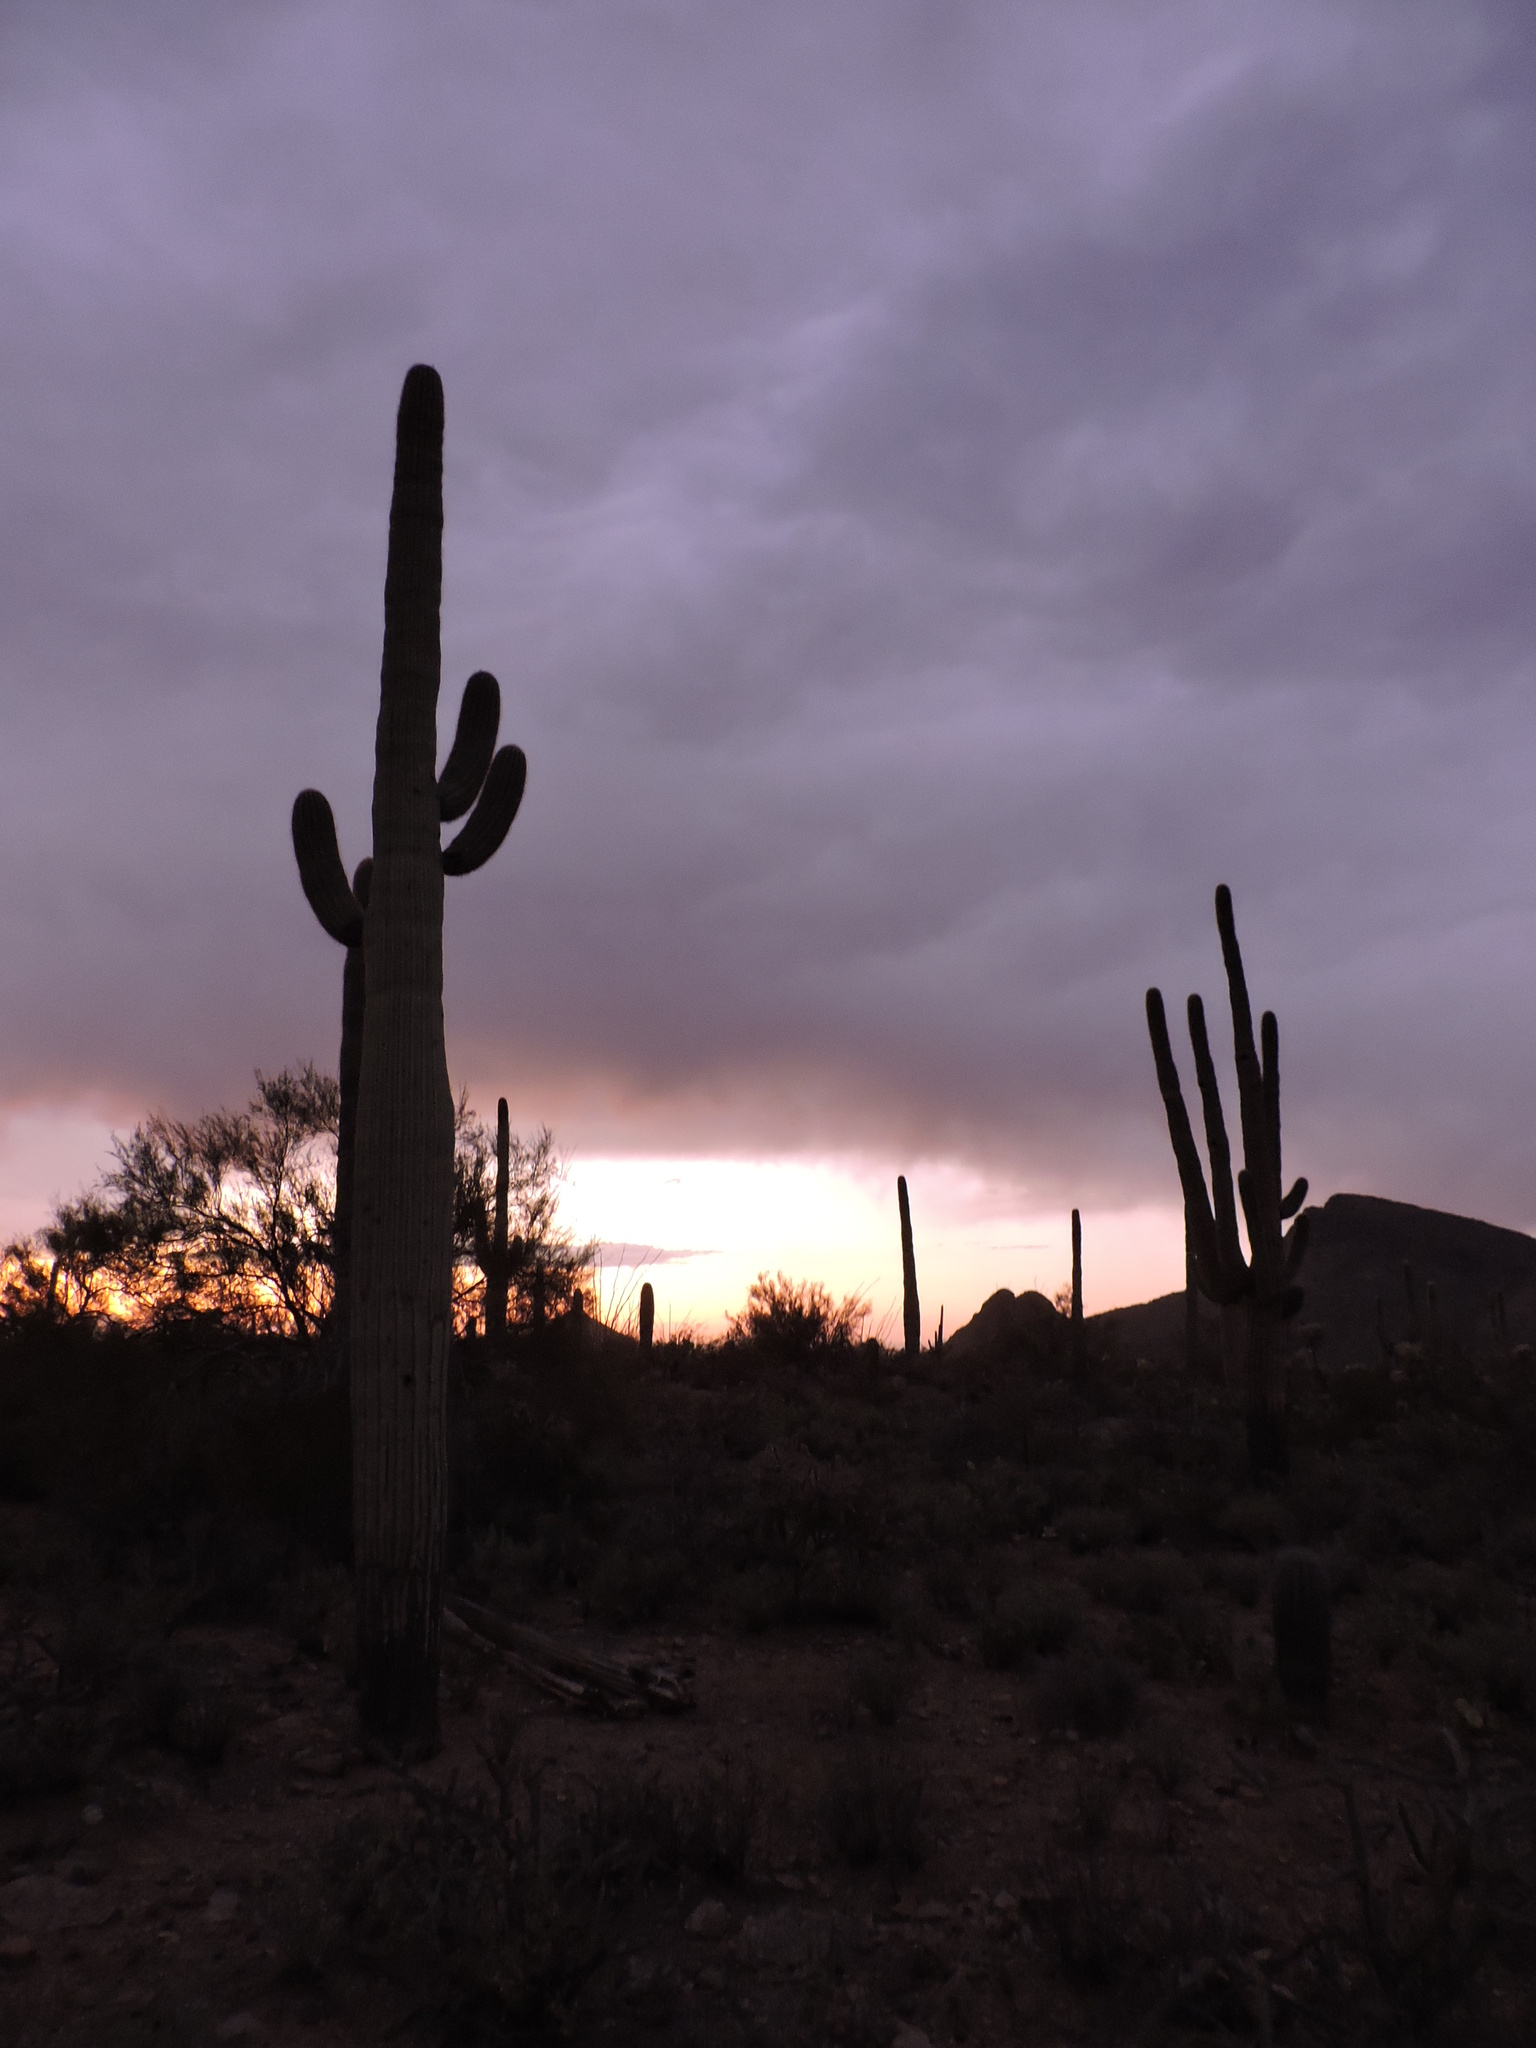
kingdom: Plantae
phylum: Tracheophyta
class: Magnoliopsida
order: Caryophyllales
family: Cactaceae
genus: Carnegiea
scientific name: Carnegiea gigantea
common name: Saguaro
